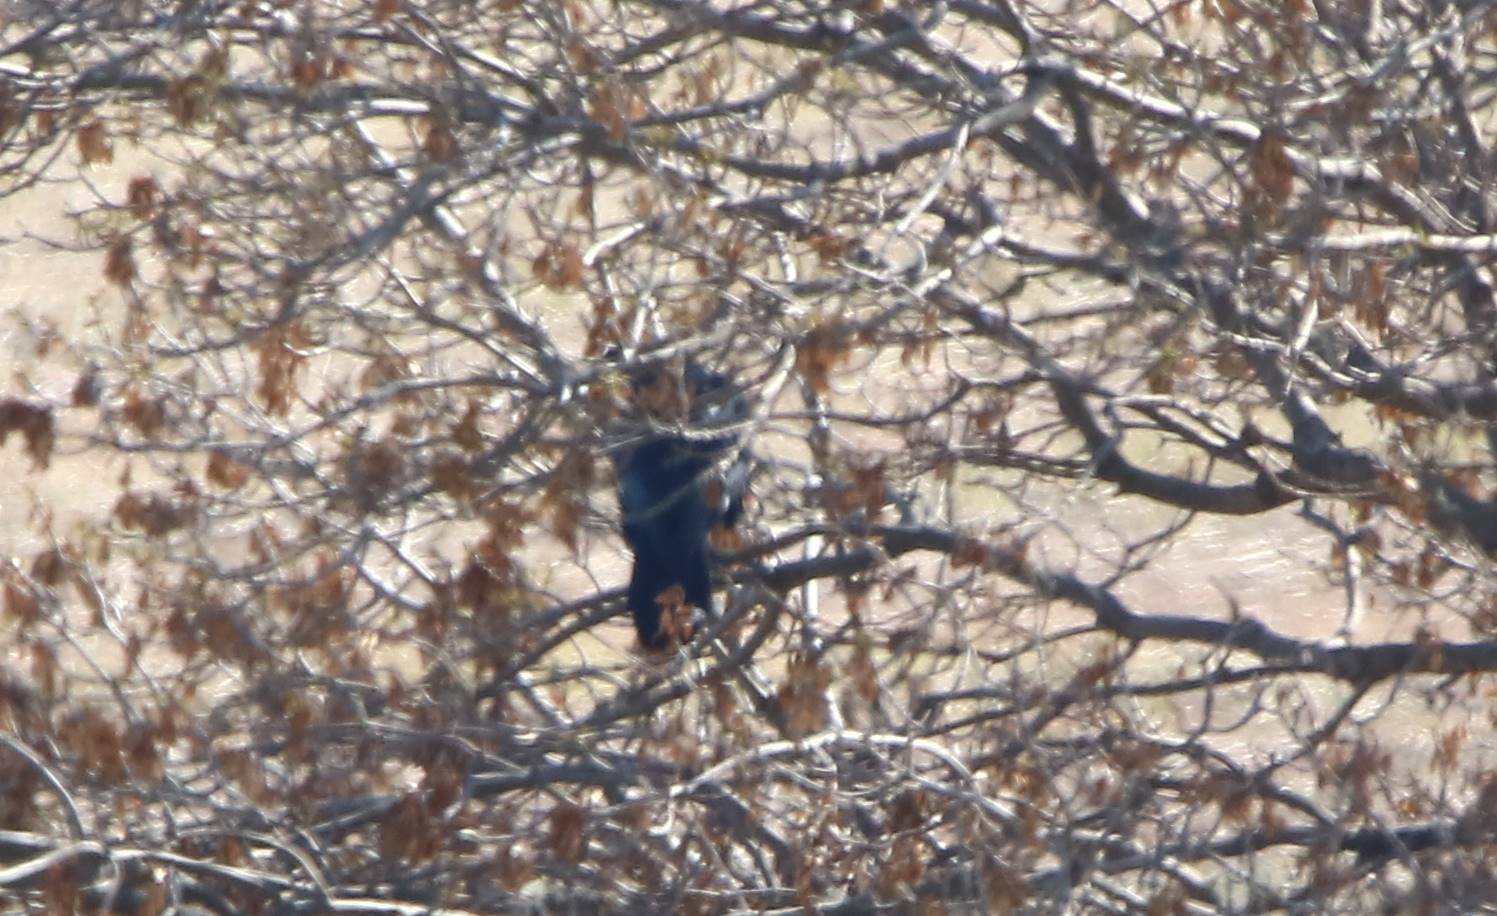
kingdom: Animalia
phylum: Chordata
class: Aves
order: Passeriformes
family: Corvidae
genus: Corvus
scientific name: Corvus corax
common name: Common raven
